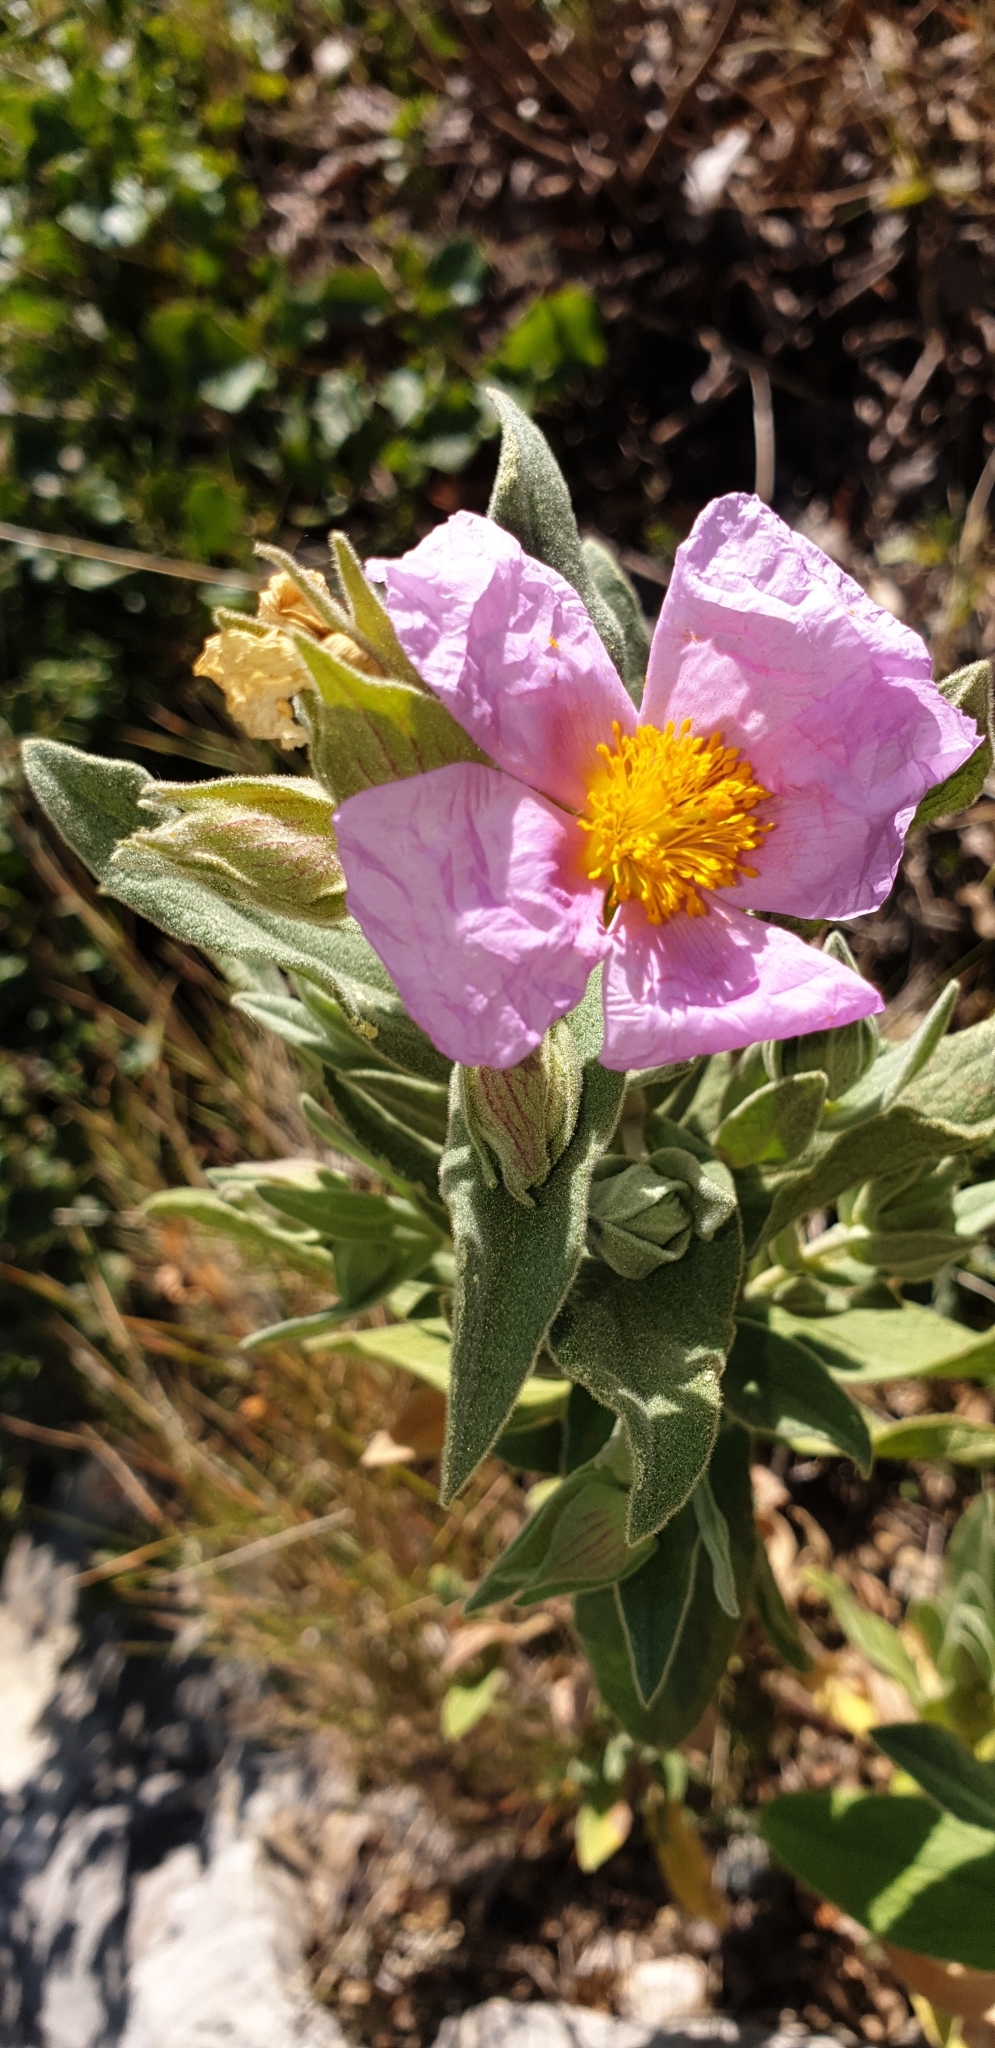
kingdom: Plantae
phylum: Tracheophyta
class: Magnoliopsida
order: Malvales
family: Cistaceae
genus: Cistus
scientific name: Cistus albidus
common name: White-leaf rock-rose
